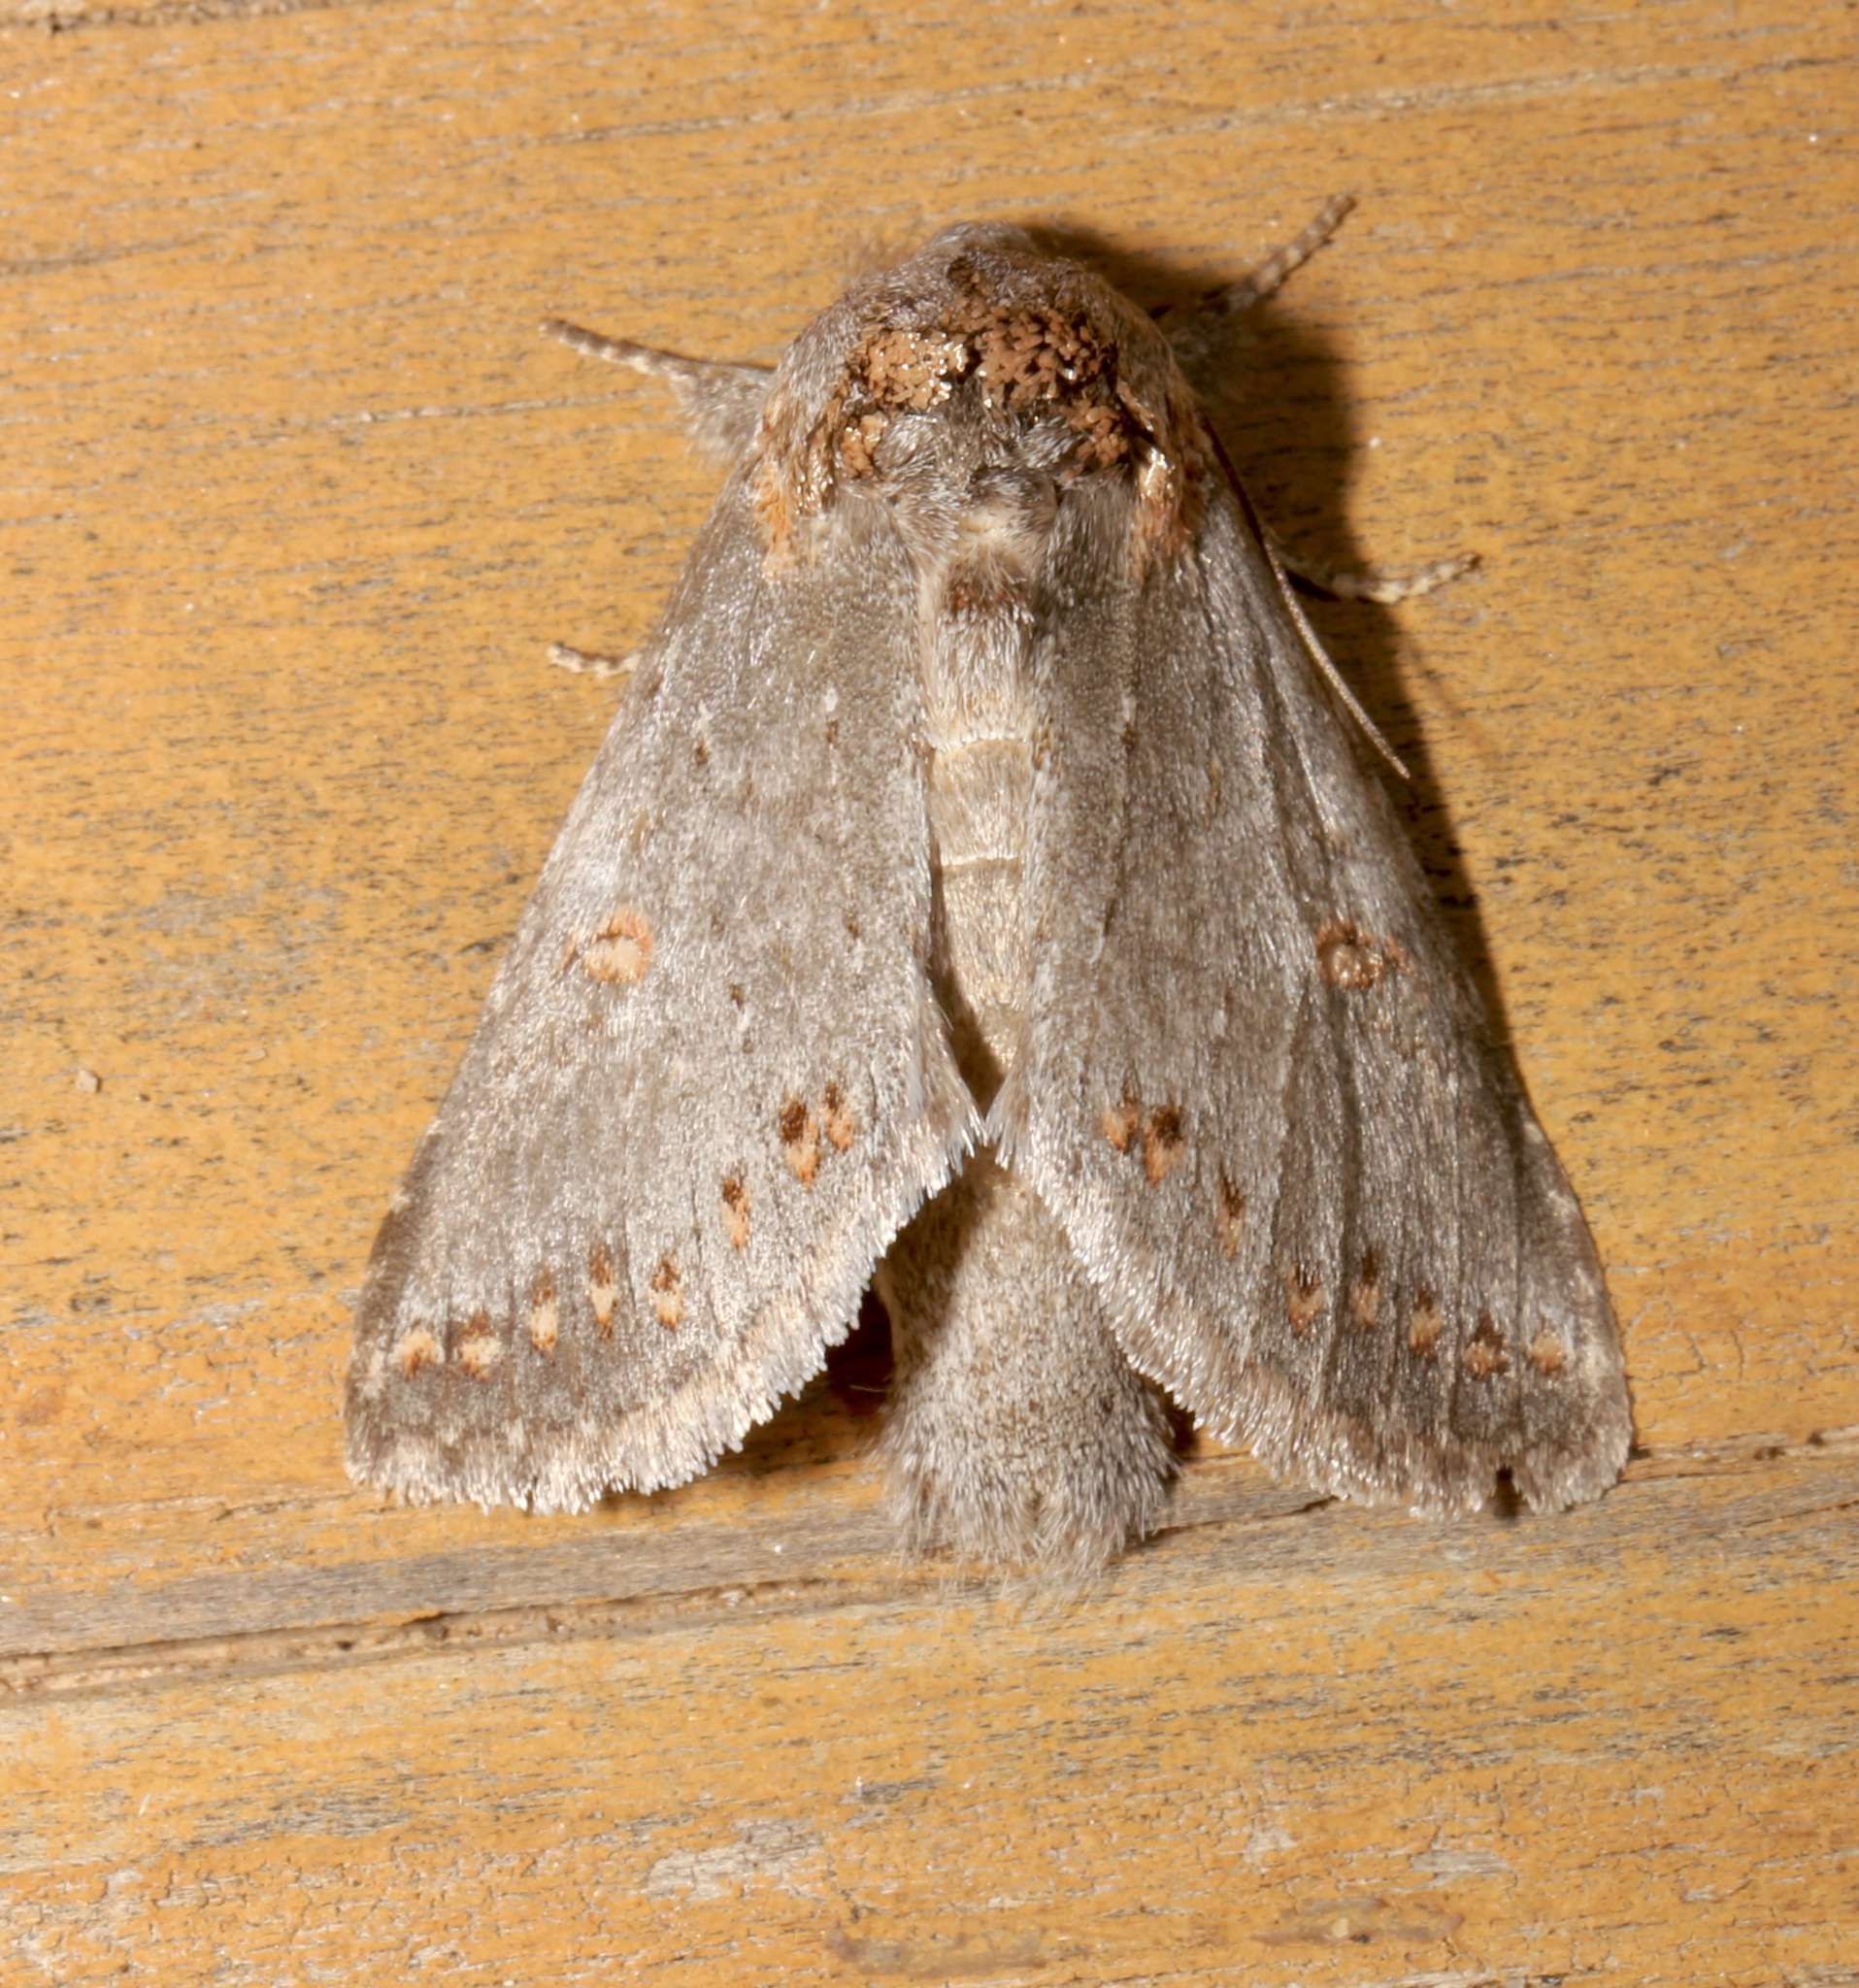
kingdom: Animalia
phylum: Arthropoda
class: Insecta
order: Lepidoptera
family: Notodontidae
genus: Theroa
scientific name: Theroa zethus
